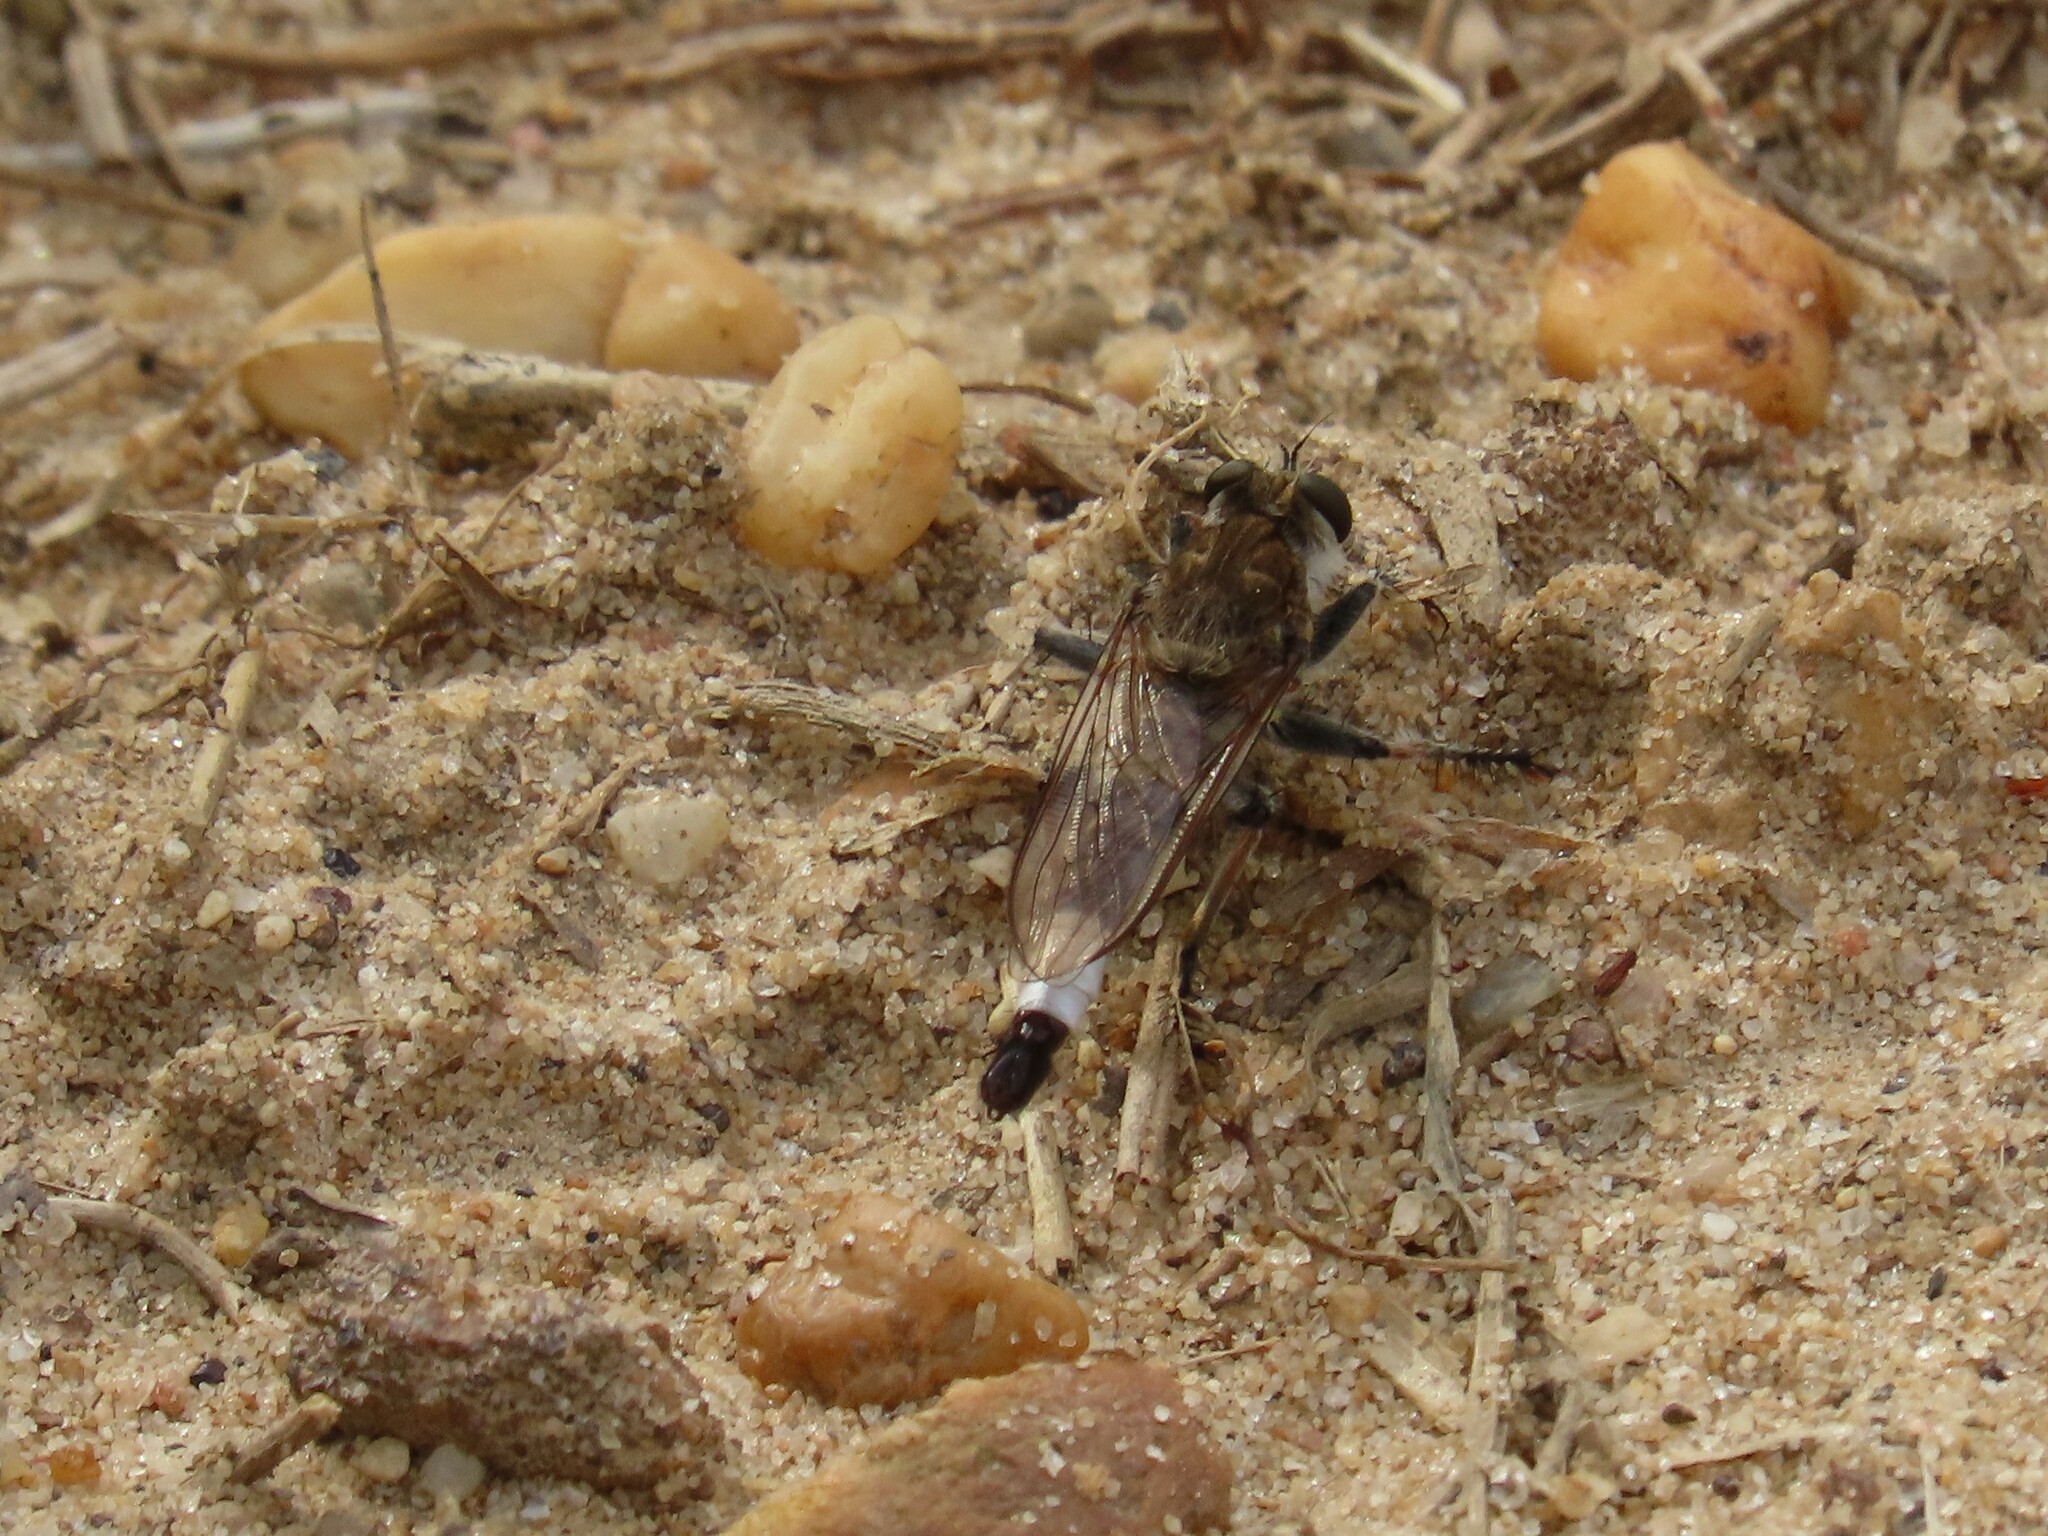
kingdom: Animalia
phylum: Arthropoda
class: Insecta
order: Diptera
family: Asilidae
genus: Efferia
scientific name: Efferia albibarbis
